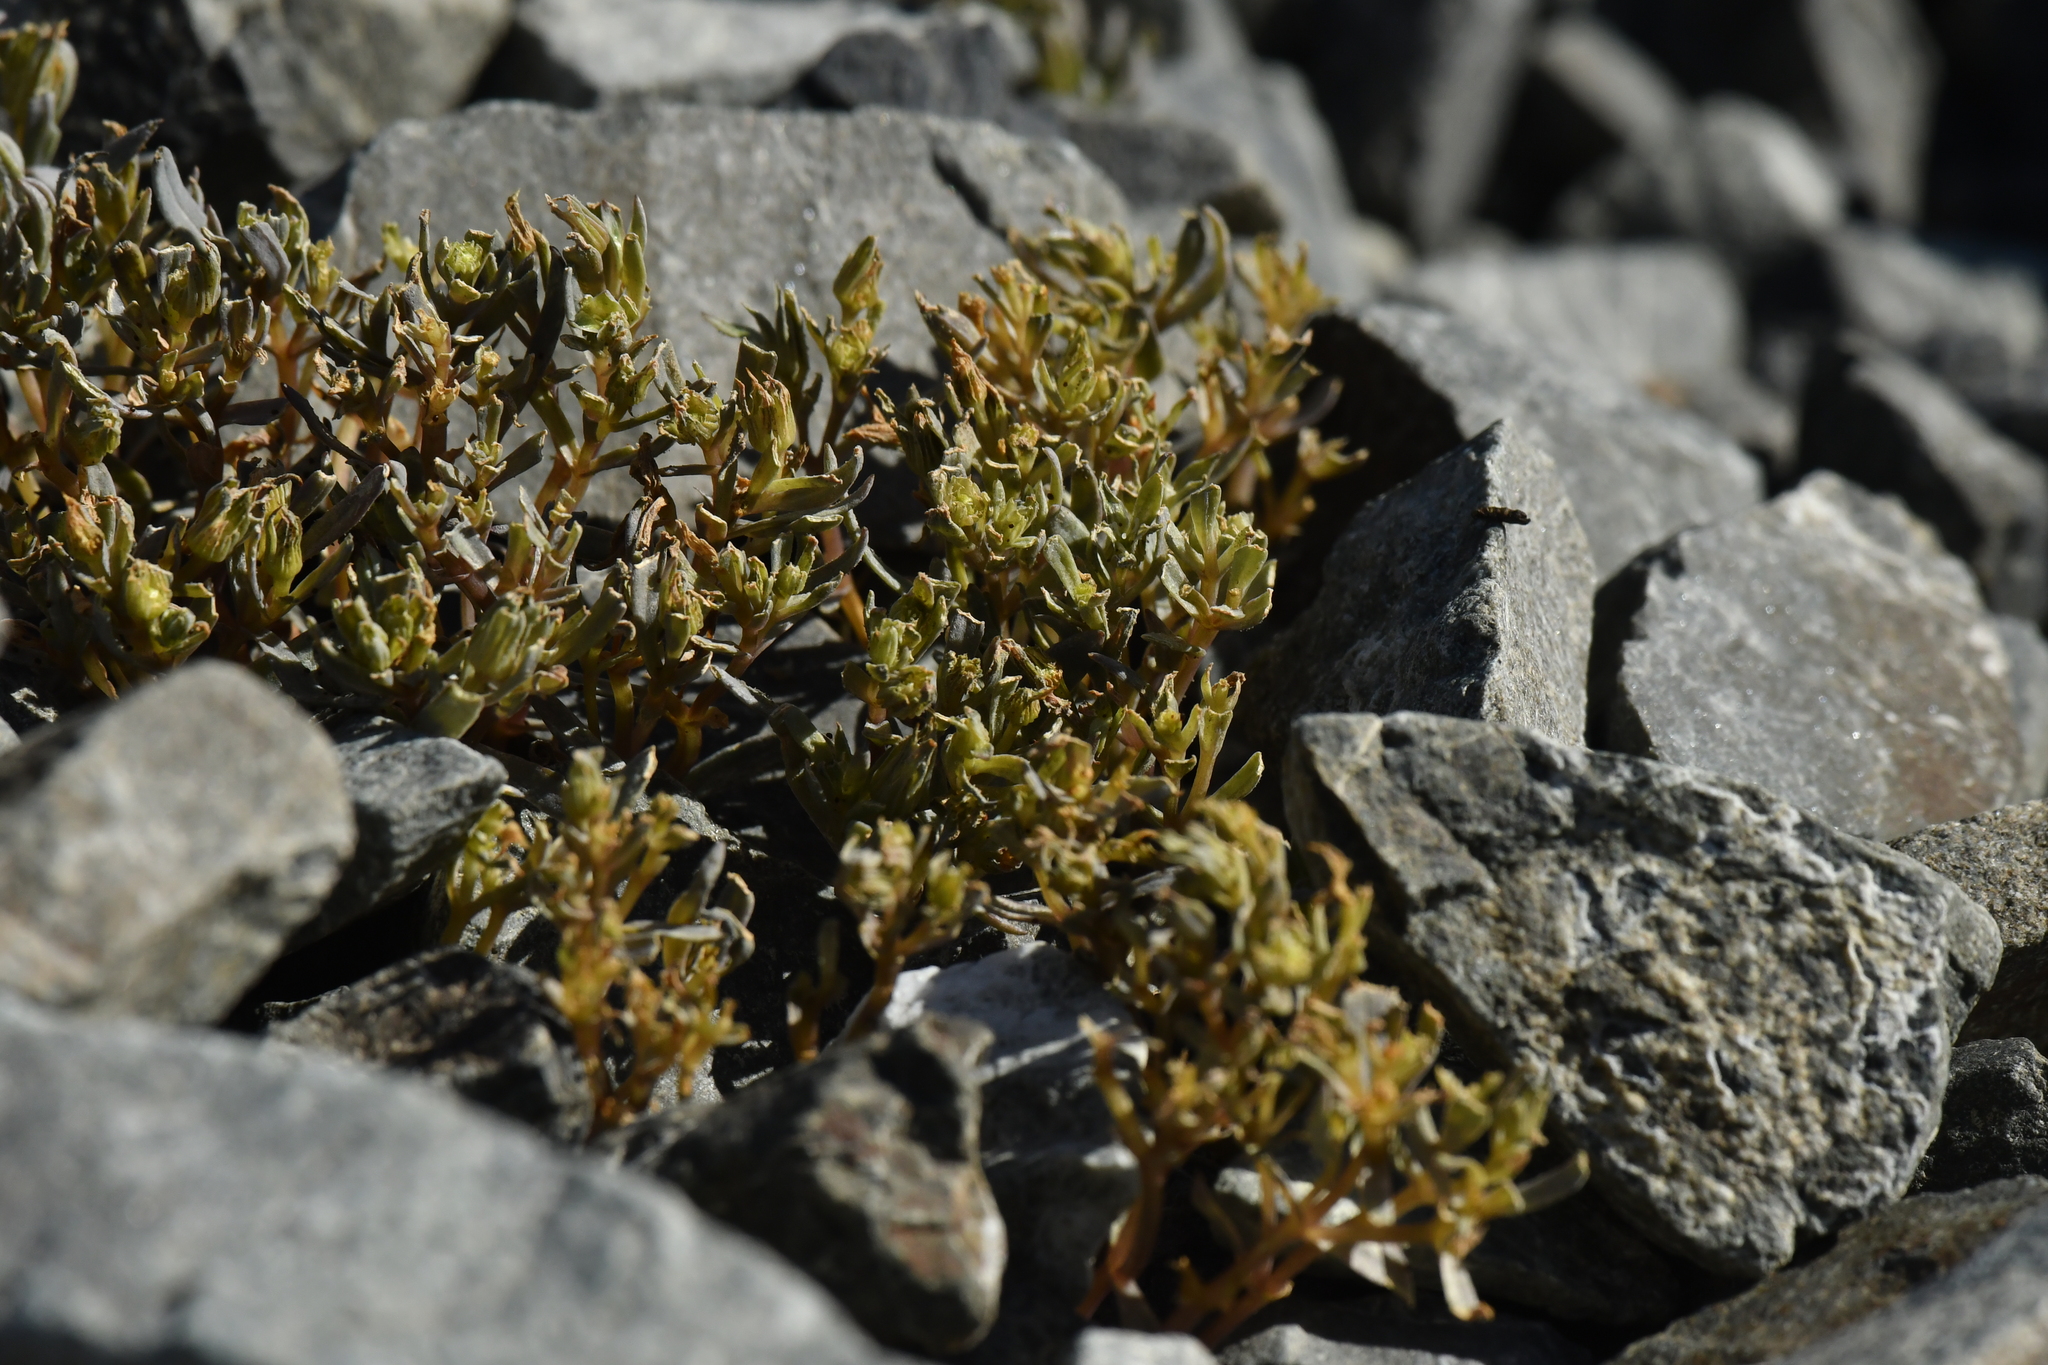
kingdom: Plantae
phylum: Tracheophyta
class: Magnoliopsida
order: Apiales
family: Apiaceae
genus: Lignocarpa
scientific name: Lignocarpa carnosula
